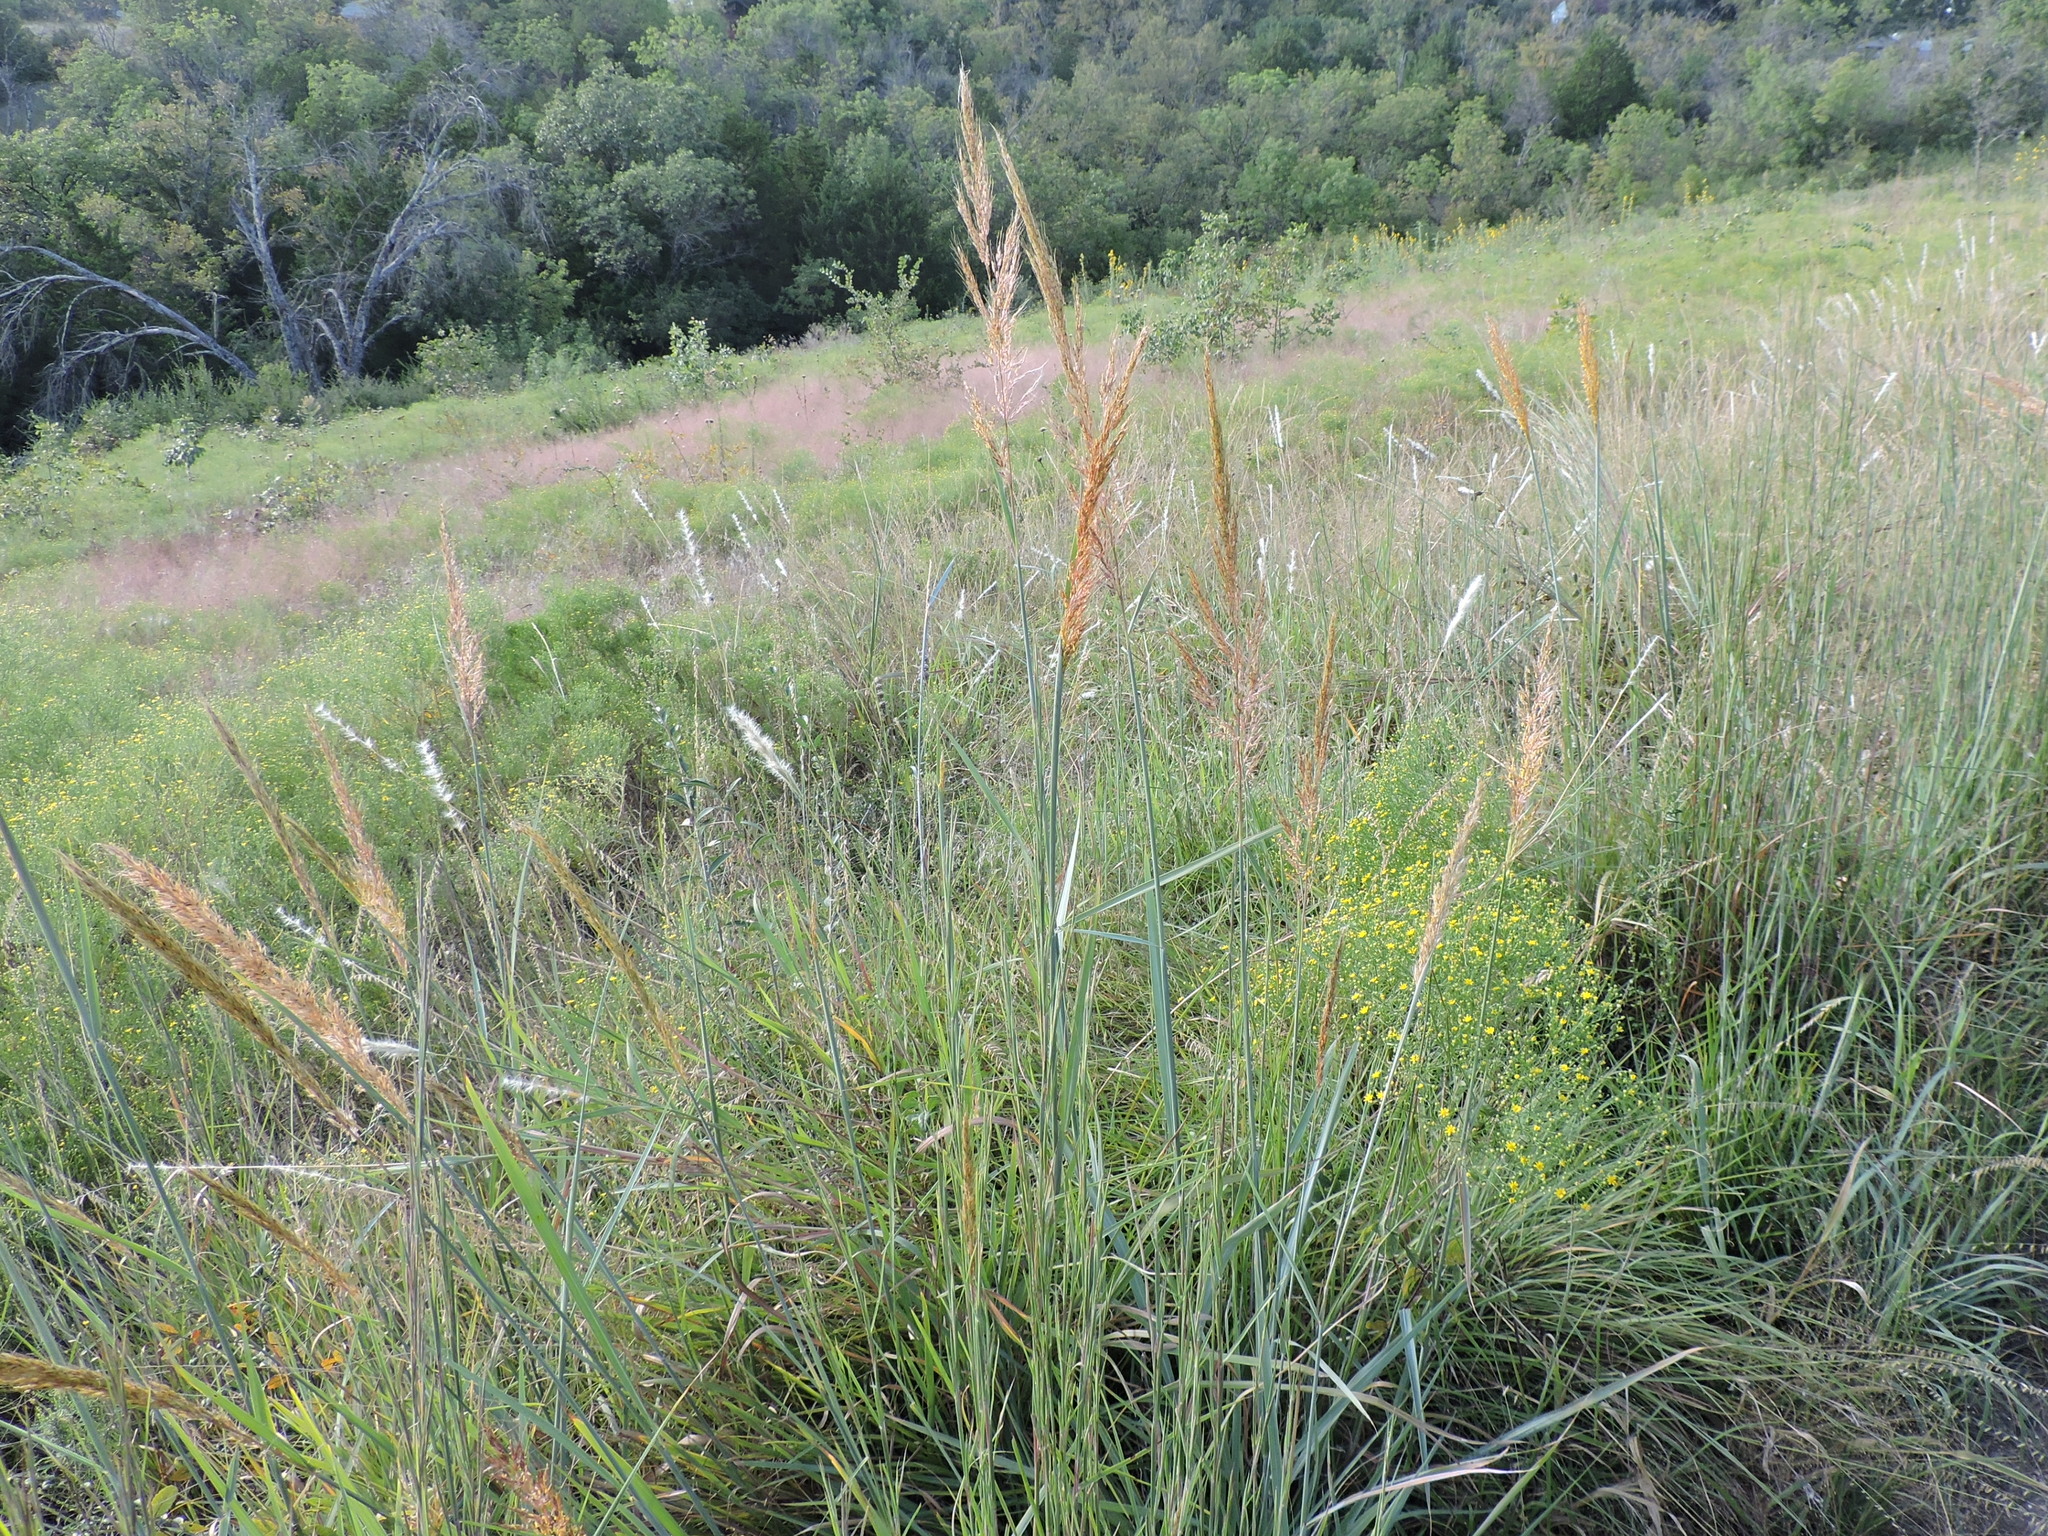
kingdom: Plantae
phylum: Tracheophyta
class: Liliopsida
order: Poales
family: Poaceae
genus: Sorghastrum
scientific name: Sorghastrum nutans
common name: Indian grass
